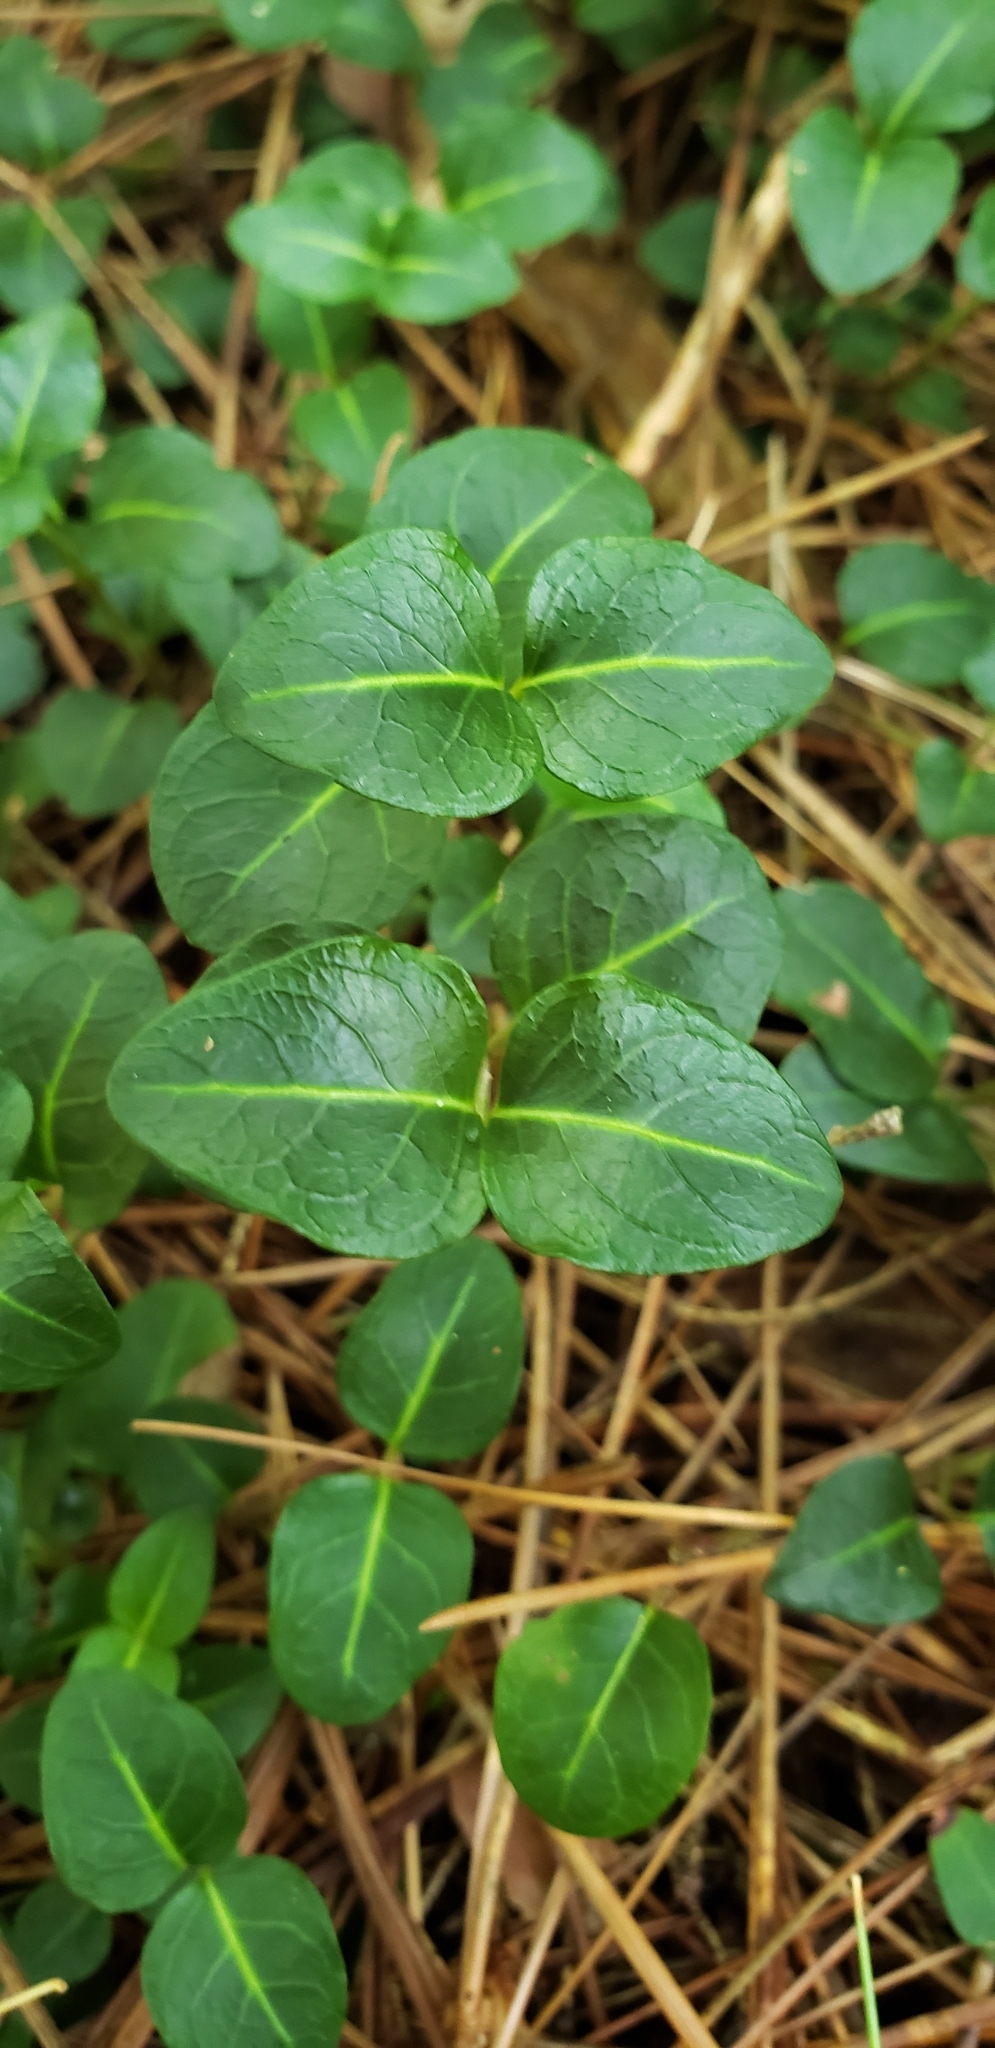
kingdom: Plantae
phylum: Tracheophyta
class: Magnoliopsida
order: Gentianales
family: Rubiaceae
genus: Mitchella
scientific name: Mitchella repens
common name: Partridge-berry
